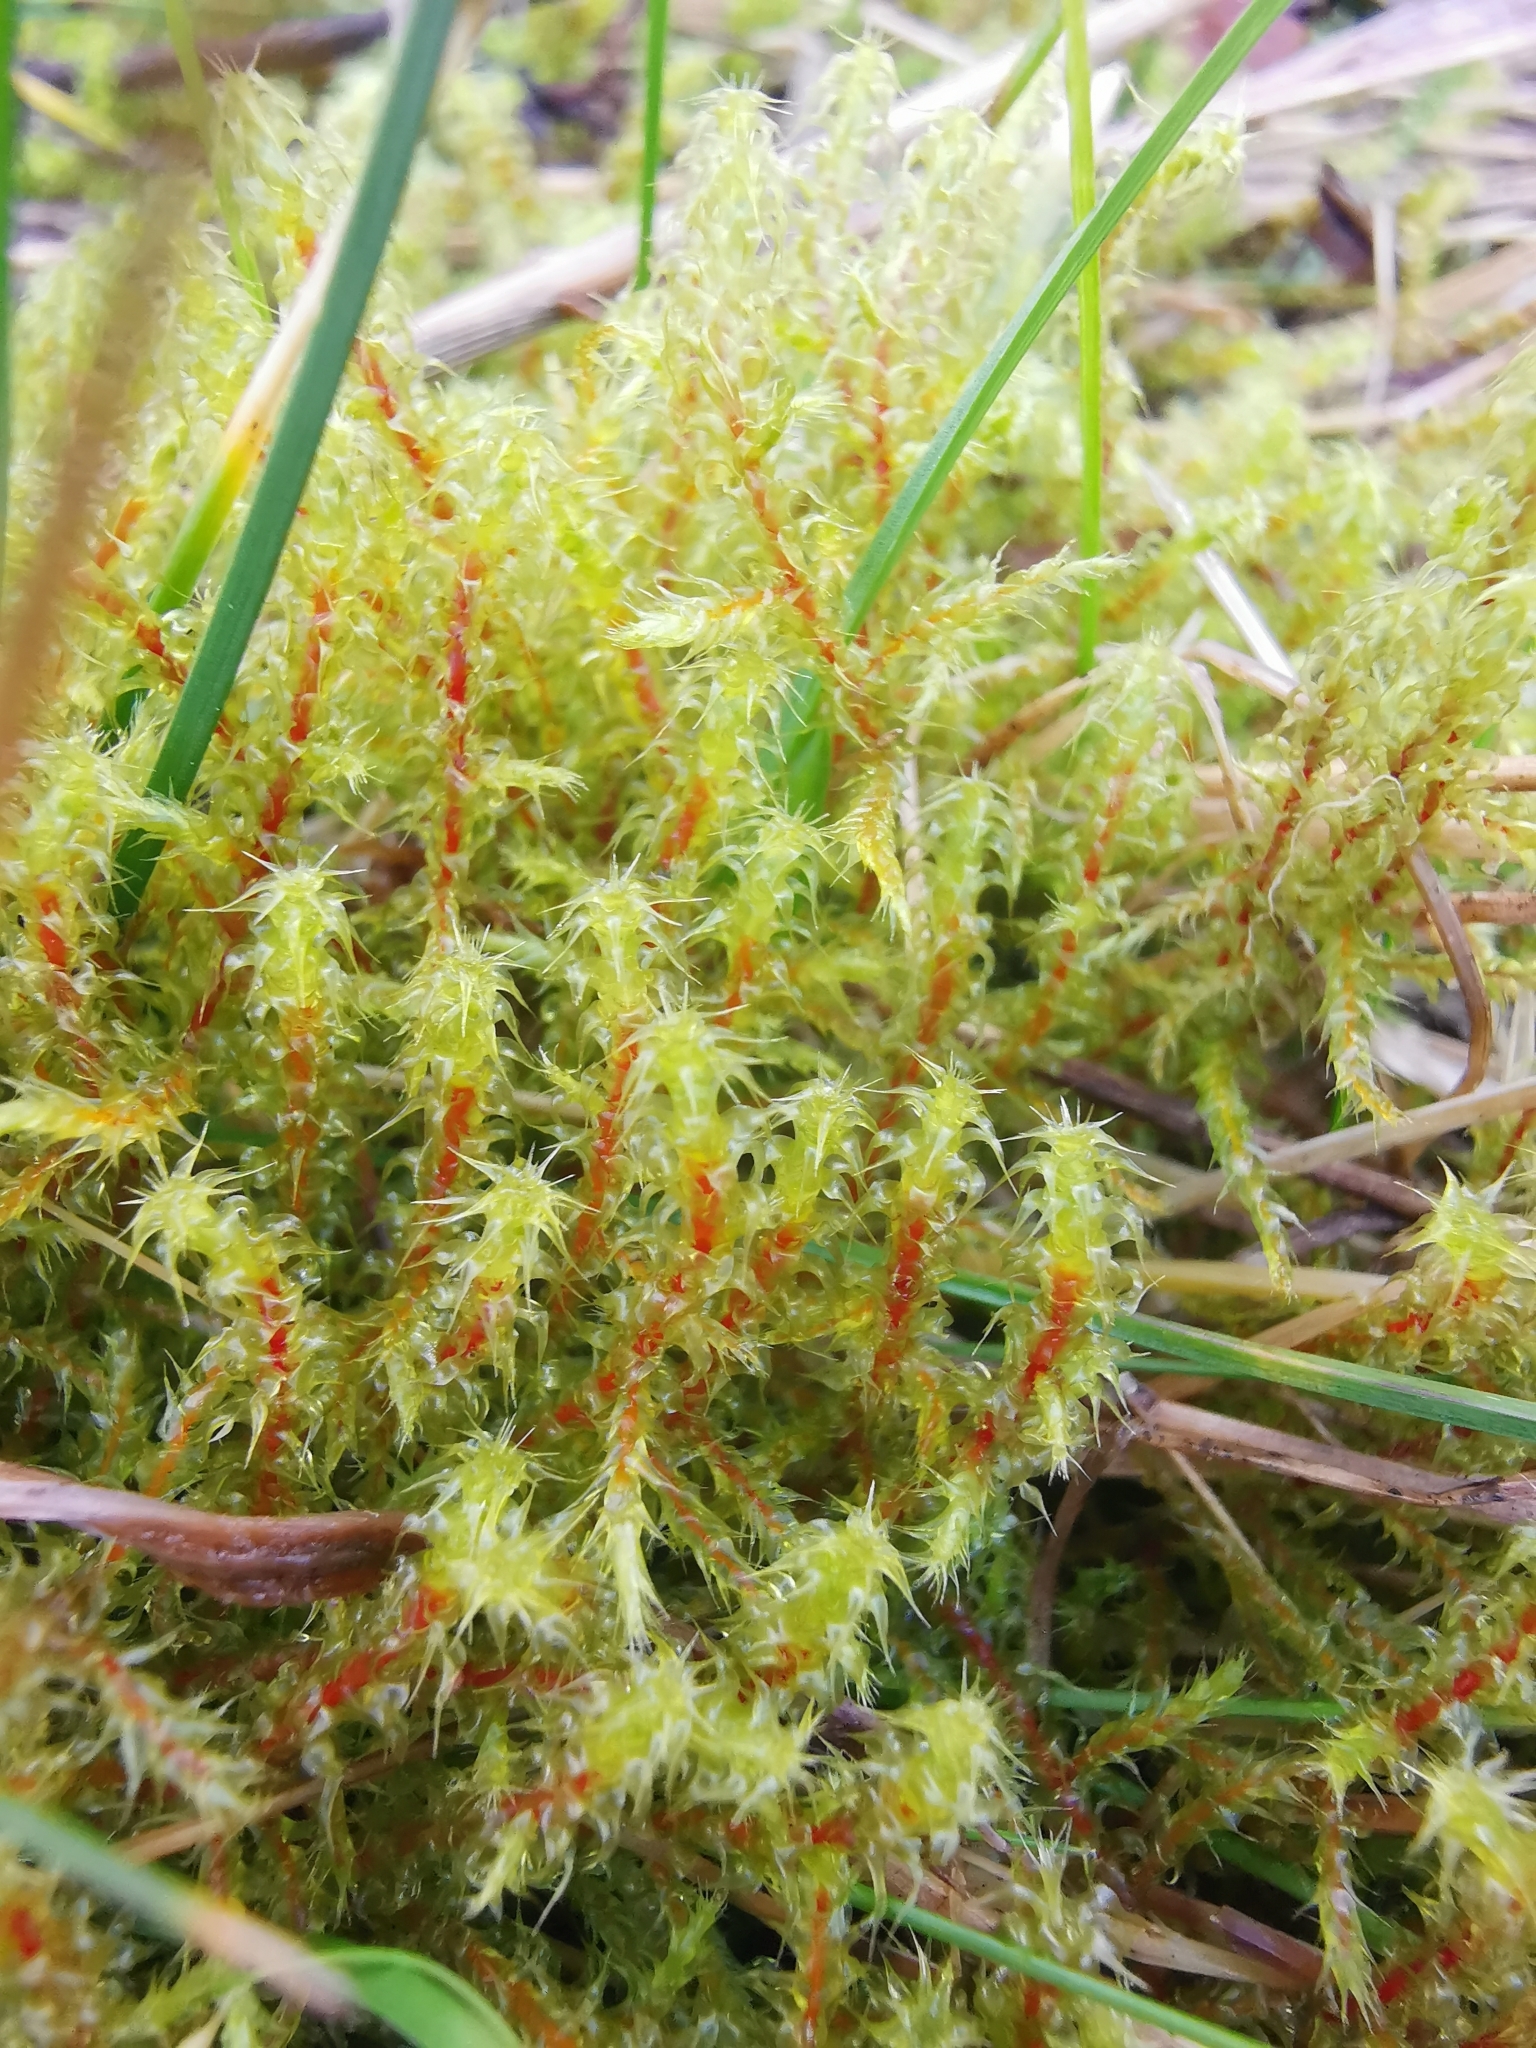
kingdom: Plantae
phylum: Bryophyta
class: Bryopsida
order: Hypnales
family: Hylocomiaceae
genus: Rhytidiadelphus
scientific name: Rhytidiadelphus squarrosus
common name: Springy turf-moss
